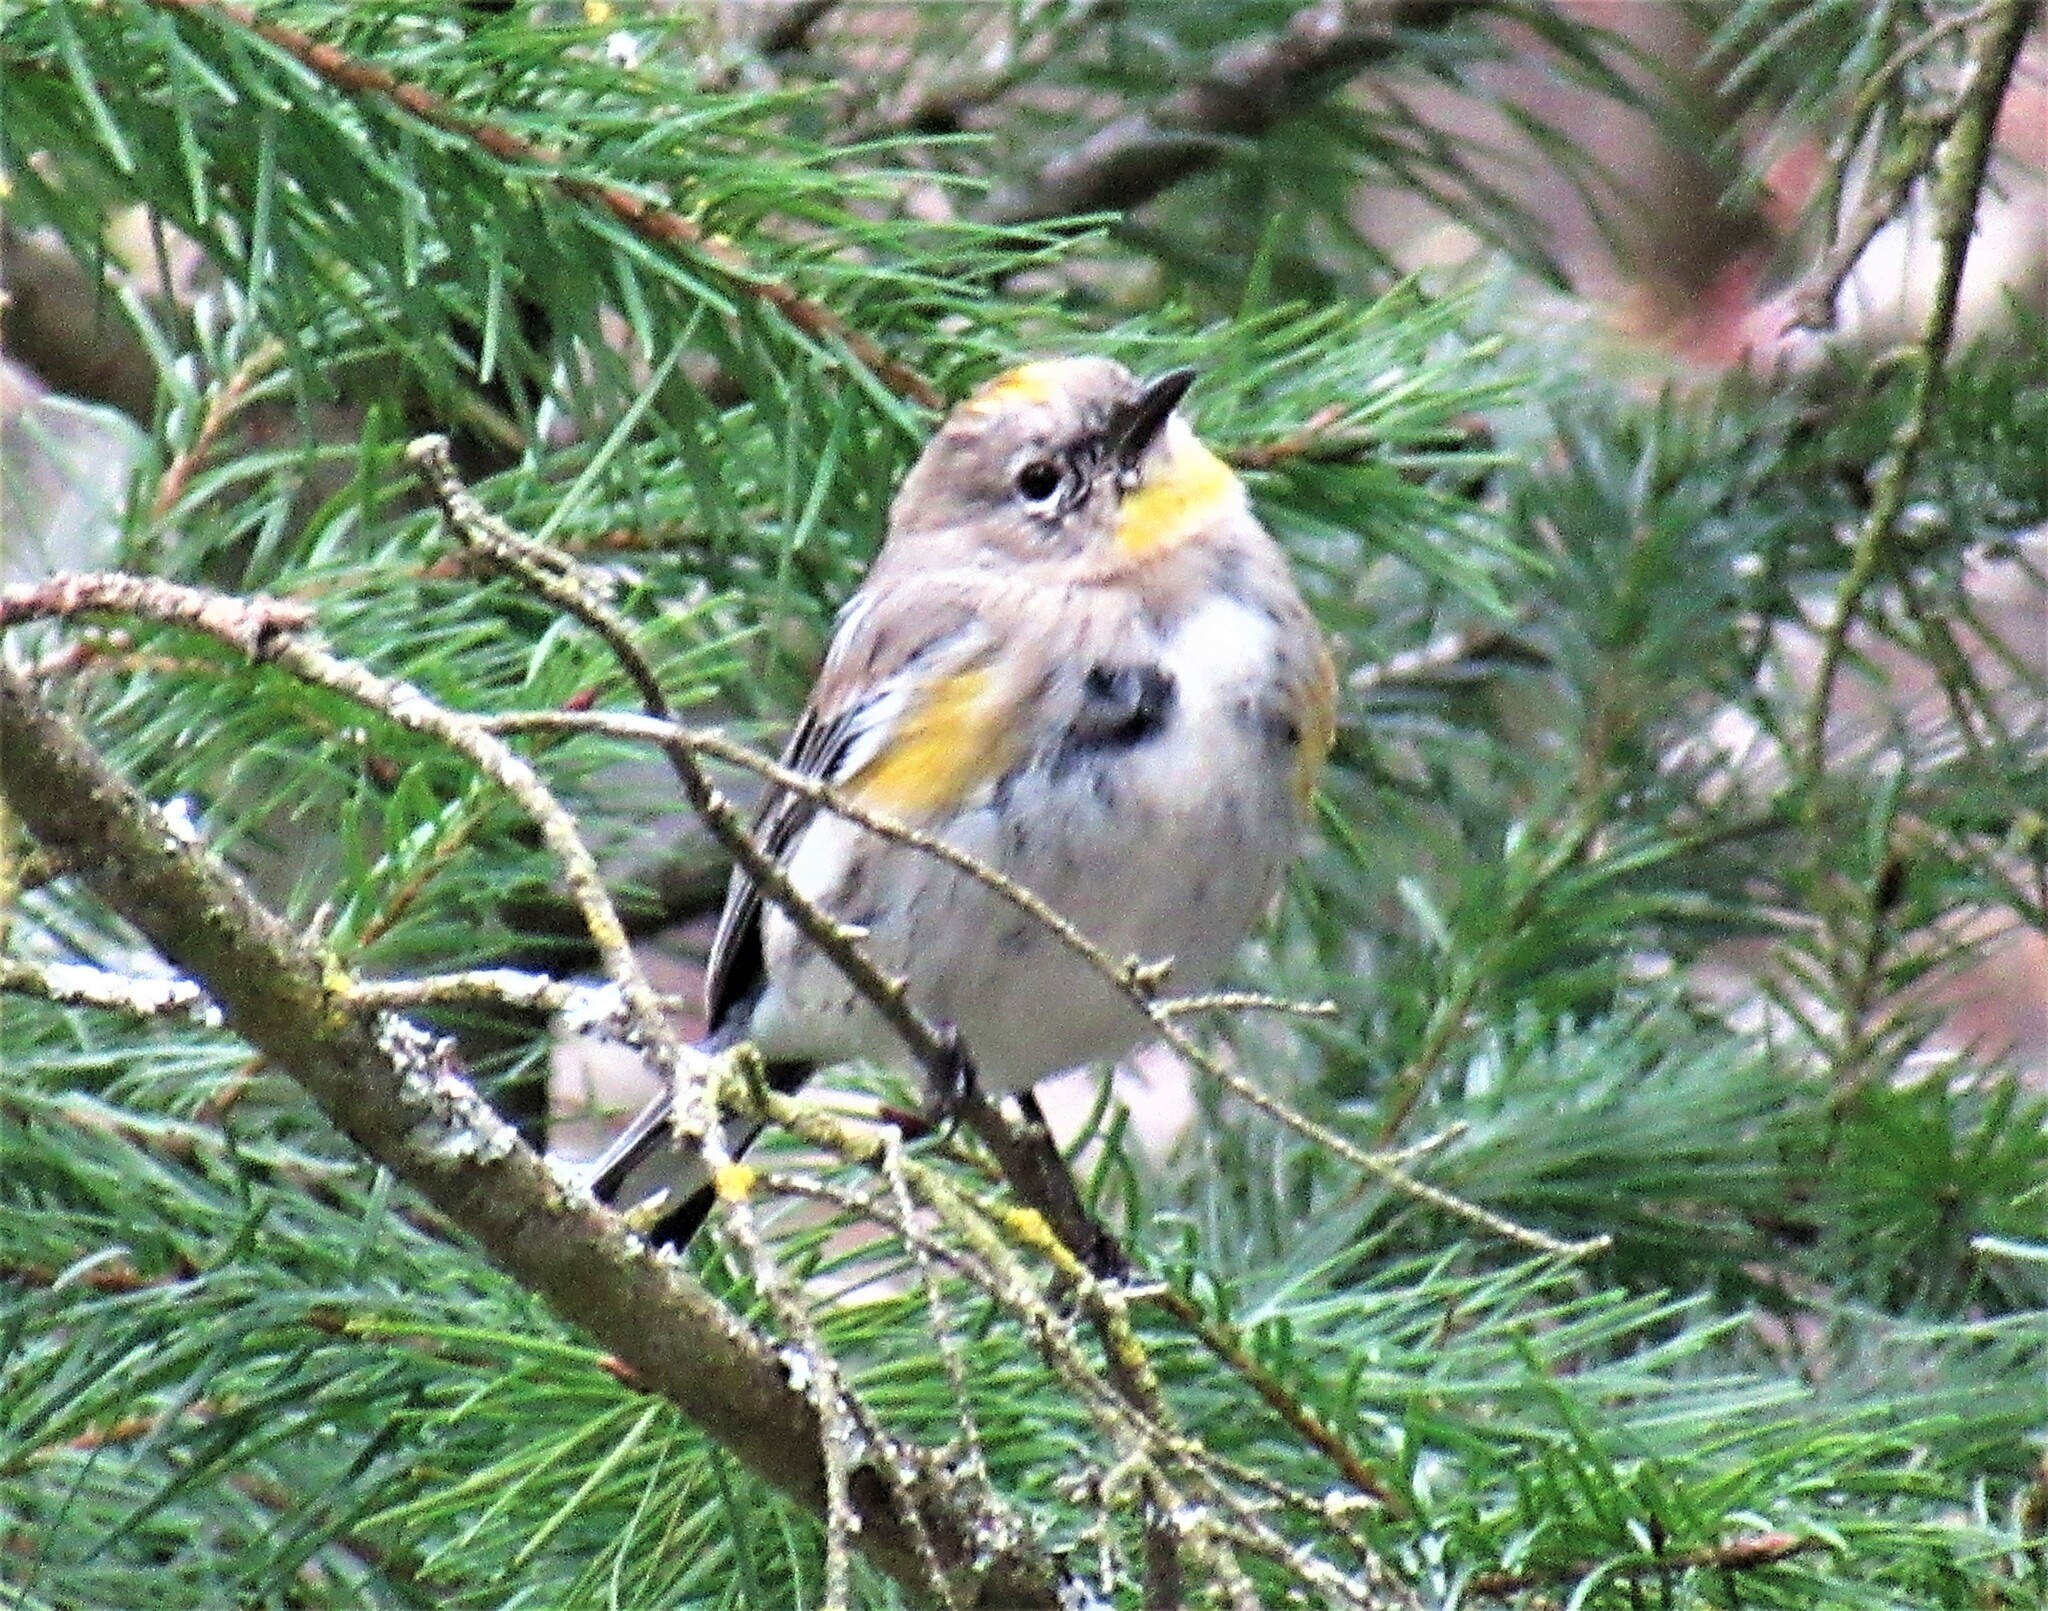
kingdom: Animalia
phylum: Chordata
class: Aves
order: Passeriformes
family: Parulidae
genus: Setophaga
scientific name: Setophaga auduboni
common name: Audubon's warbler
